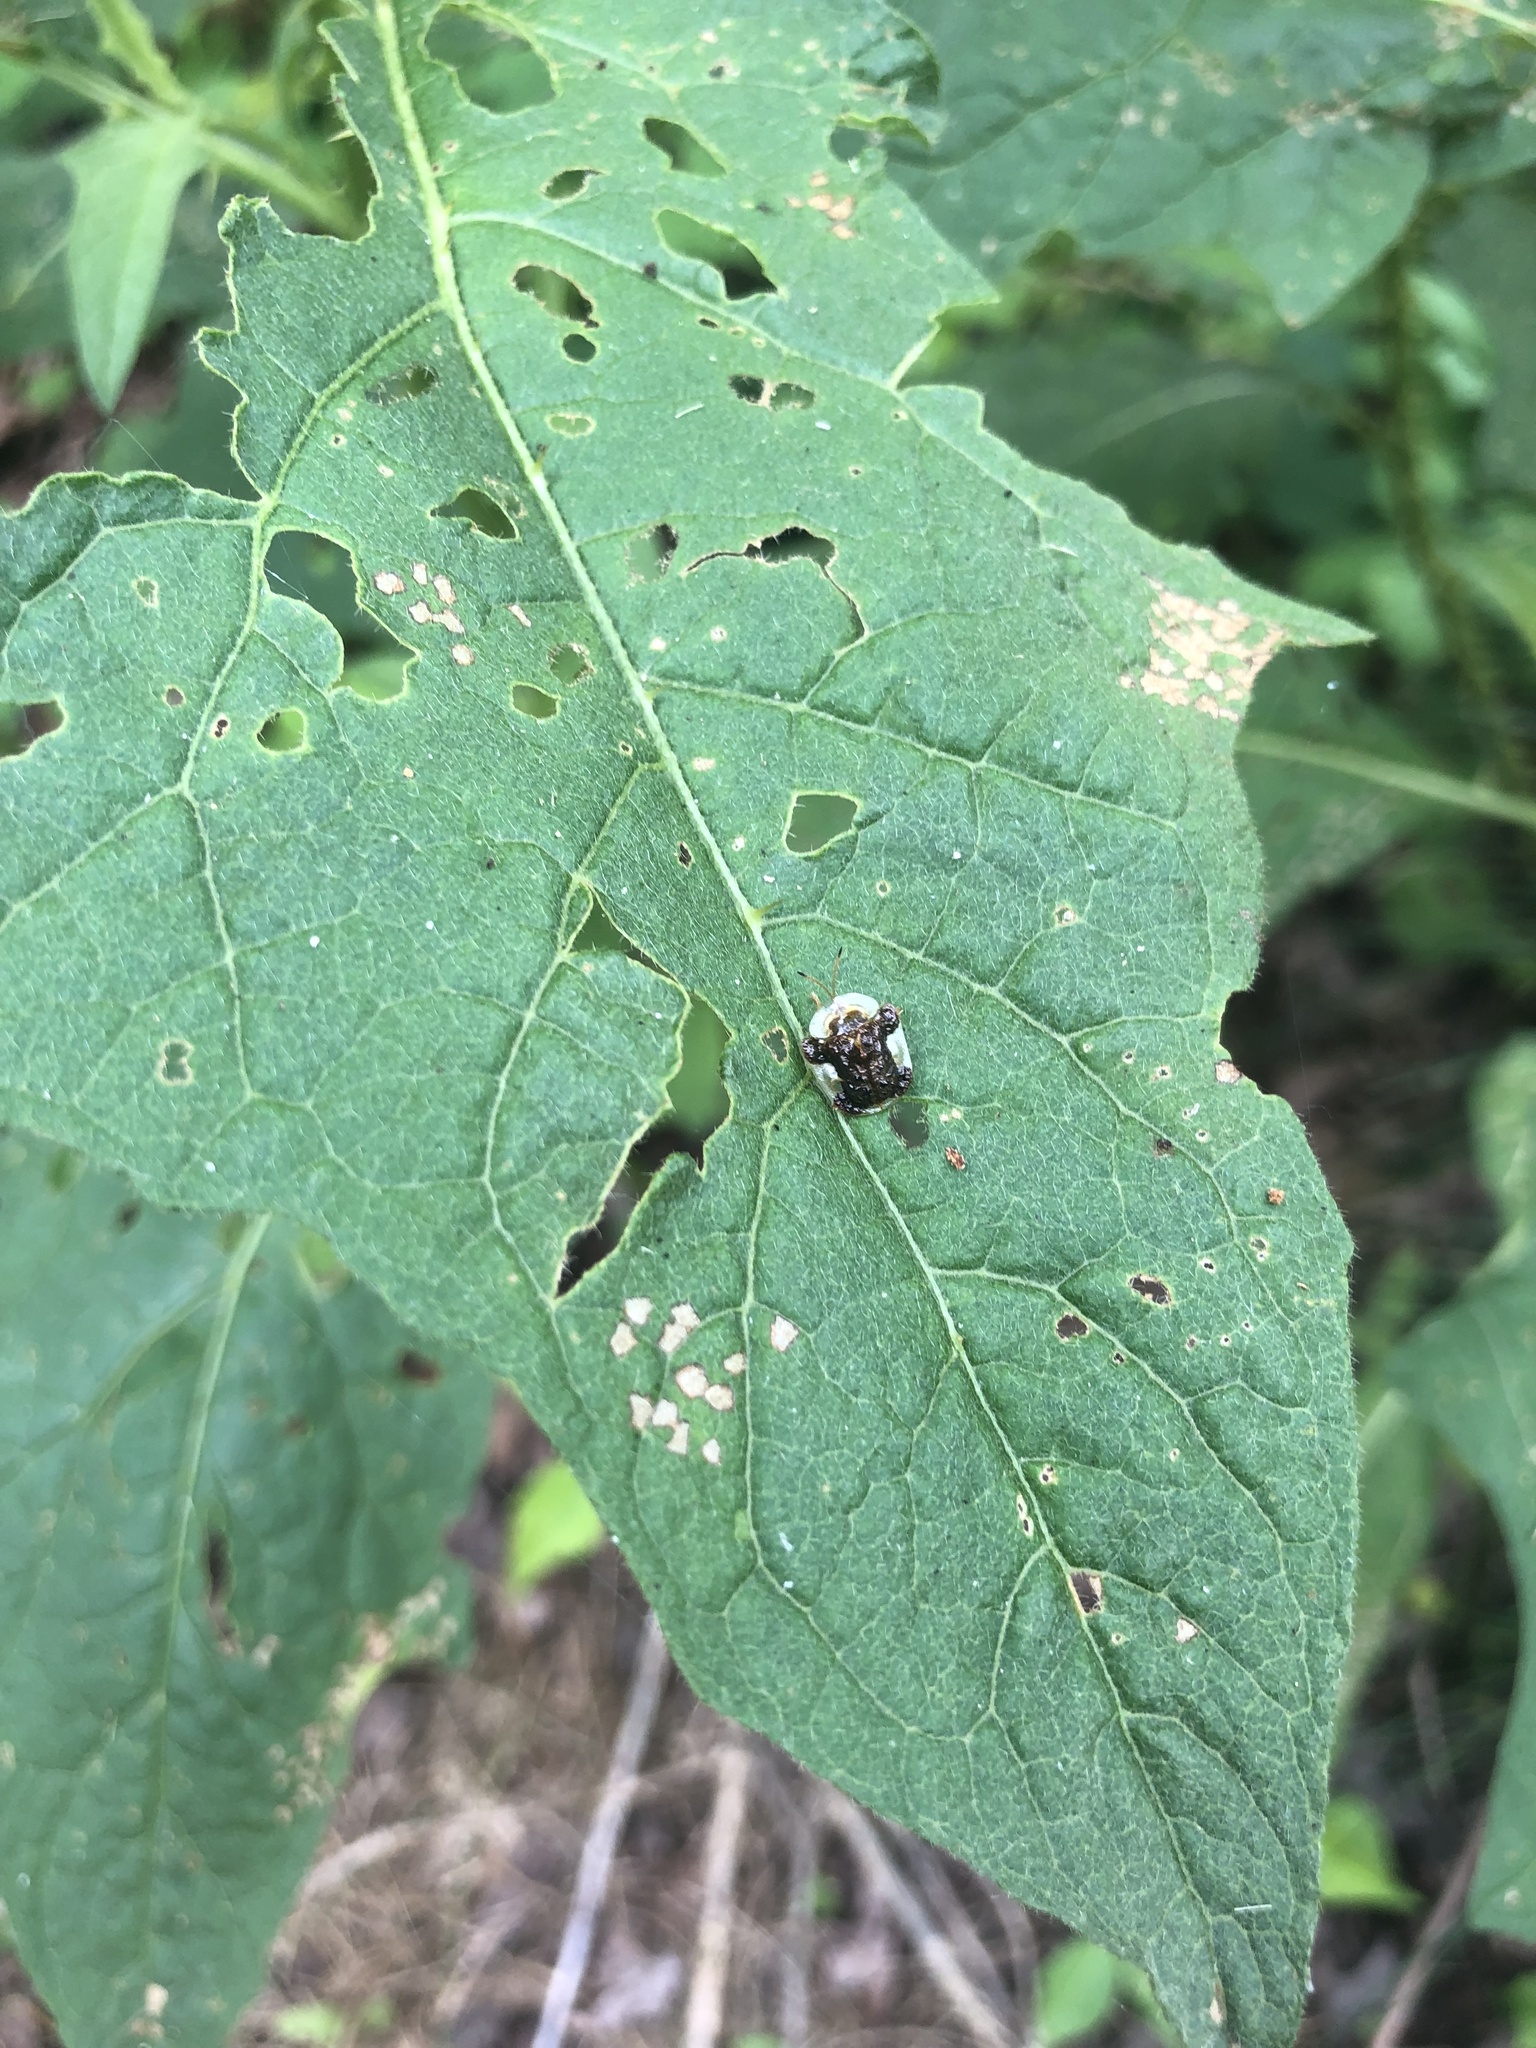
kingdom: Animalia
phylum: Arthropoda
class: Insecta
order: Coleoptera
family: Chrysomelidae
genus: Helocassis
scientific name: Helocassis clavata
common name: Clavate tortoise beetle
